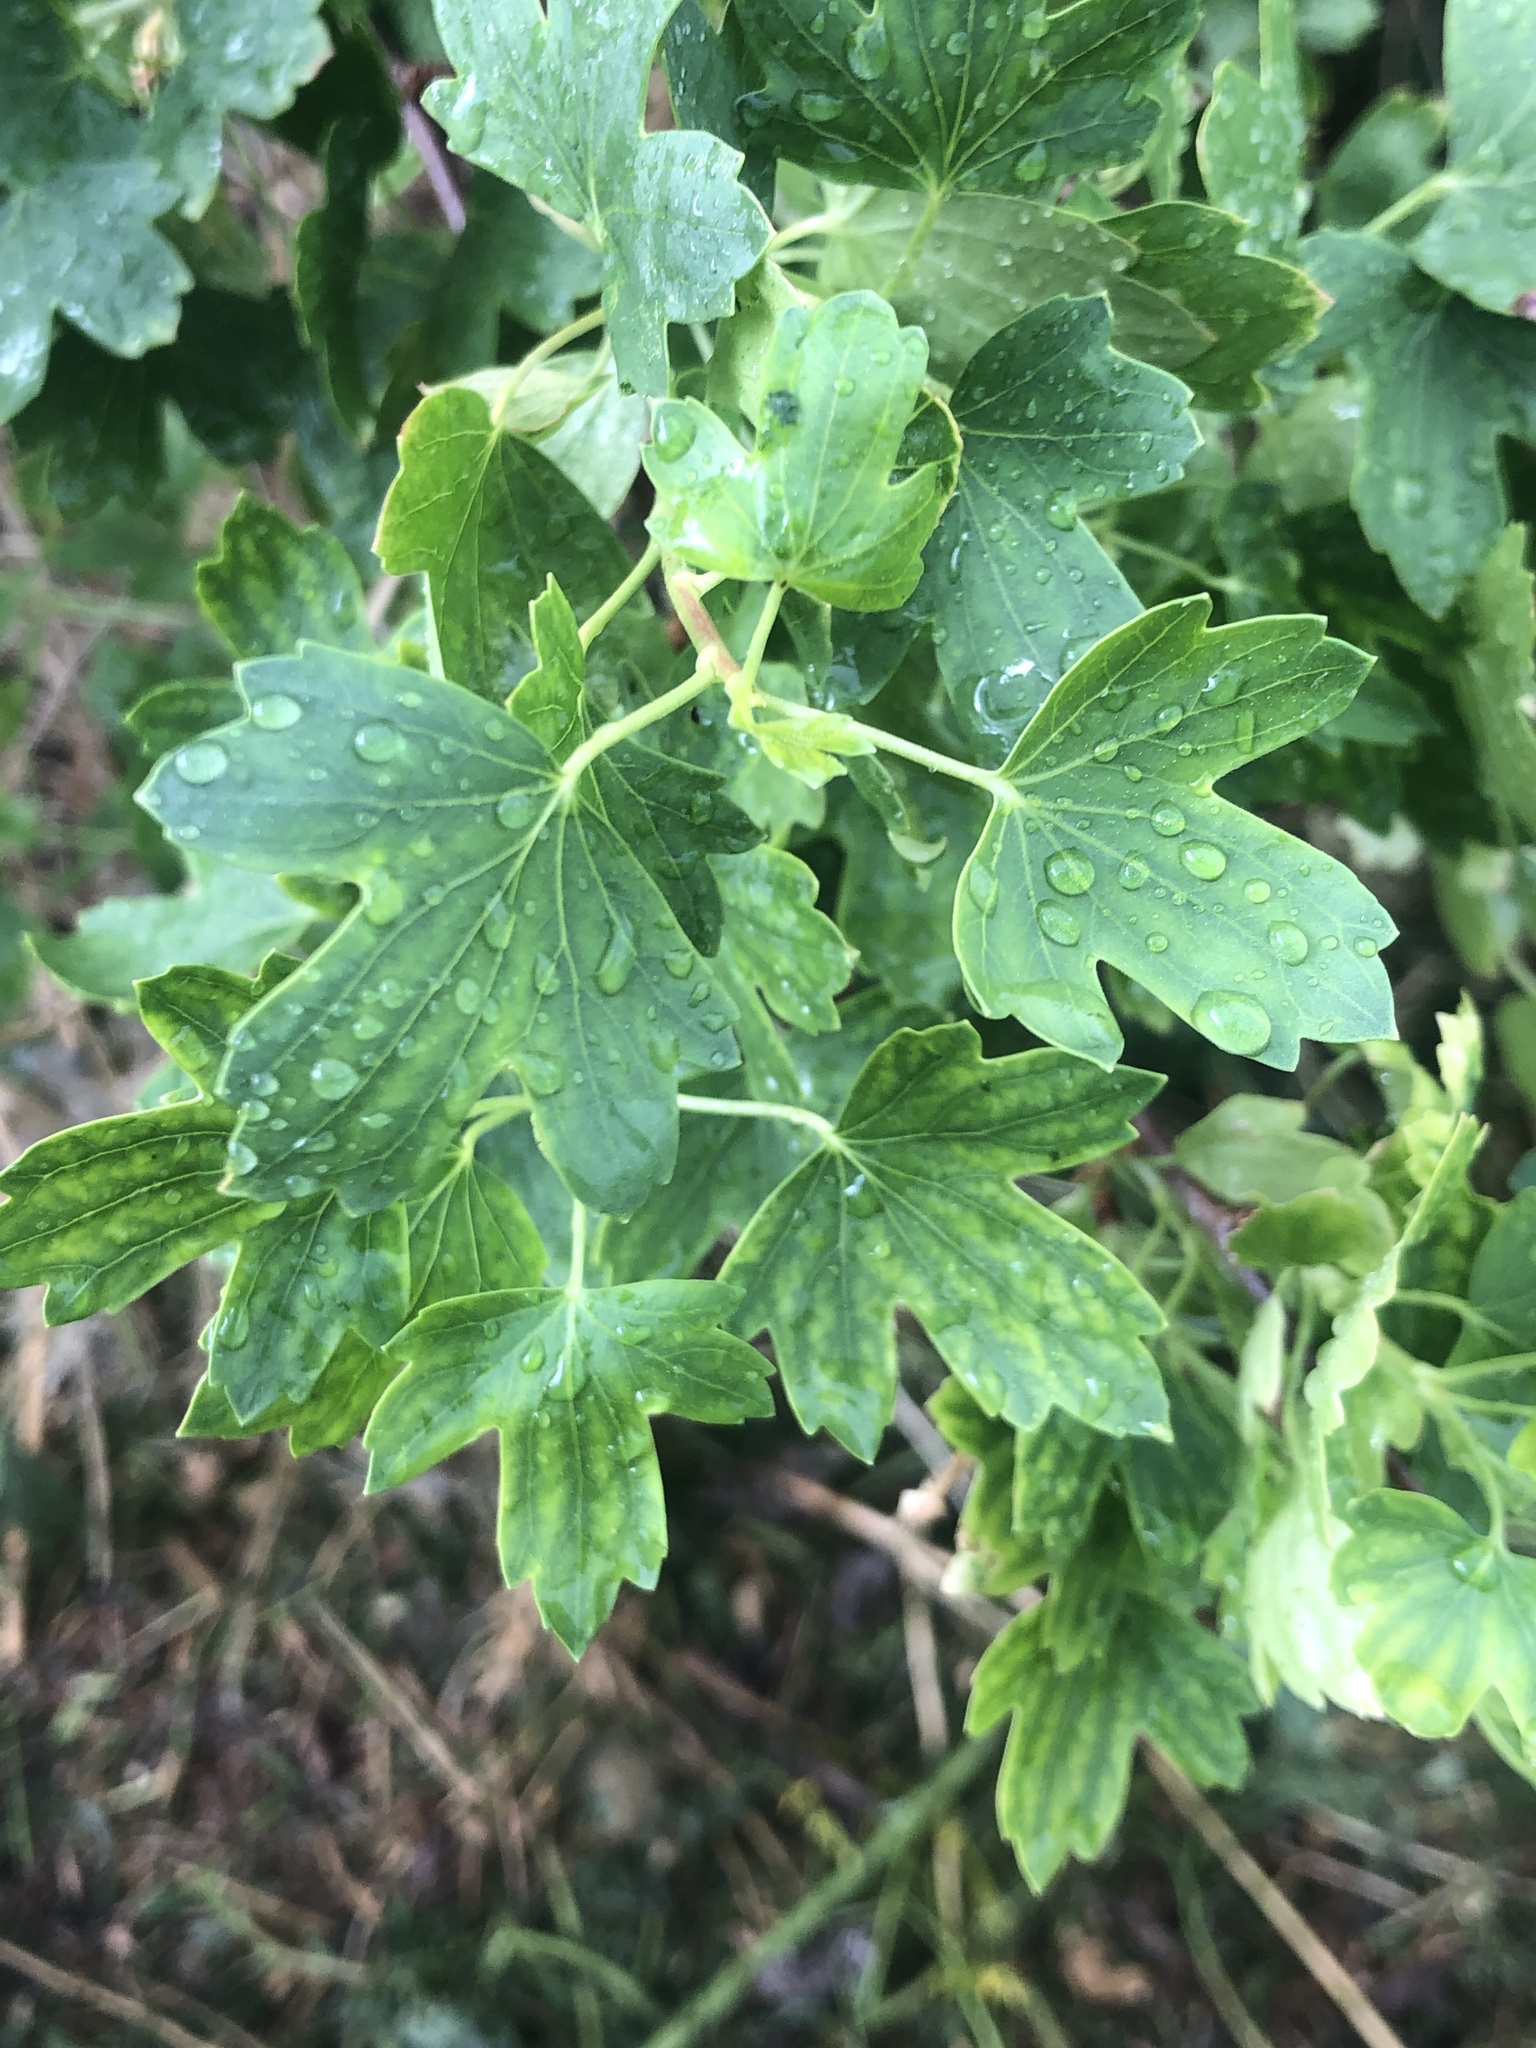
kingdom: Plantae
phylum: Tracheophyta
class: Magnoliopsida
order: Saxifragales
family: Grossulariaceae
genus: Ribes
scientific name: Ribes aureum
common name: Golden currant
